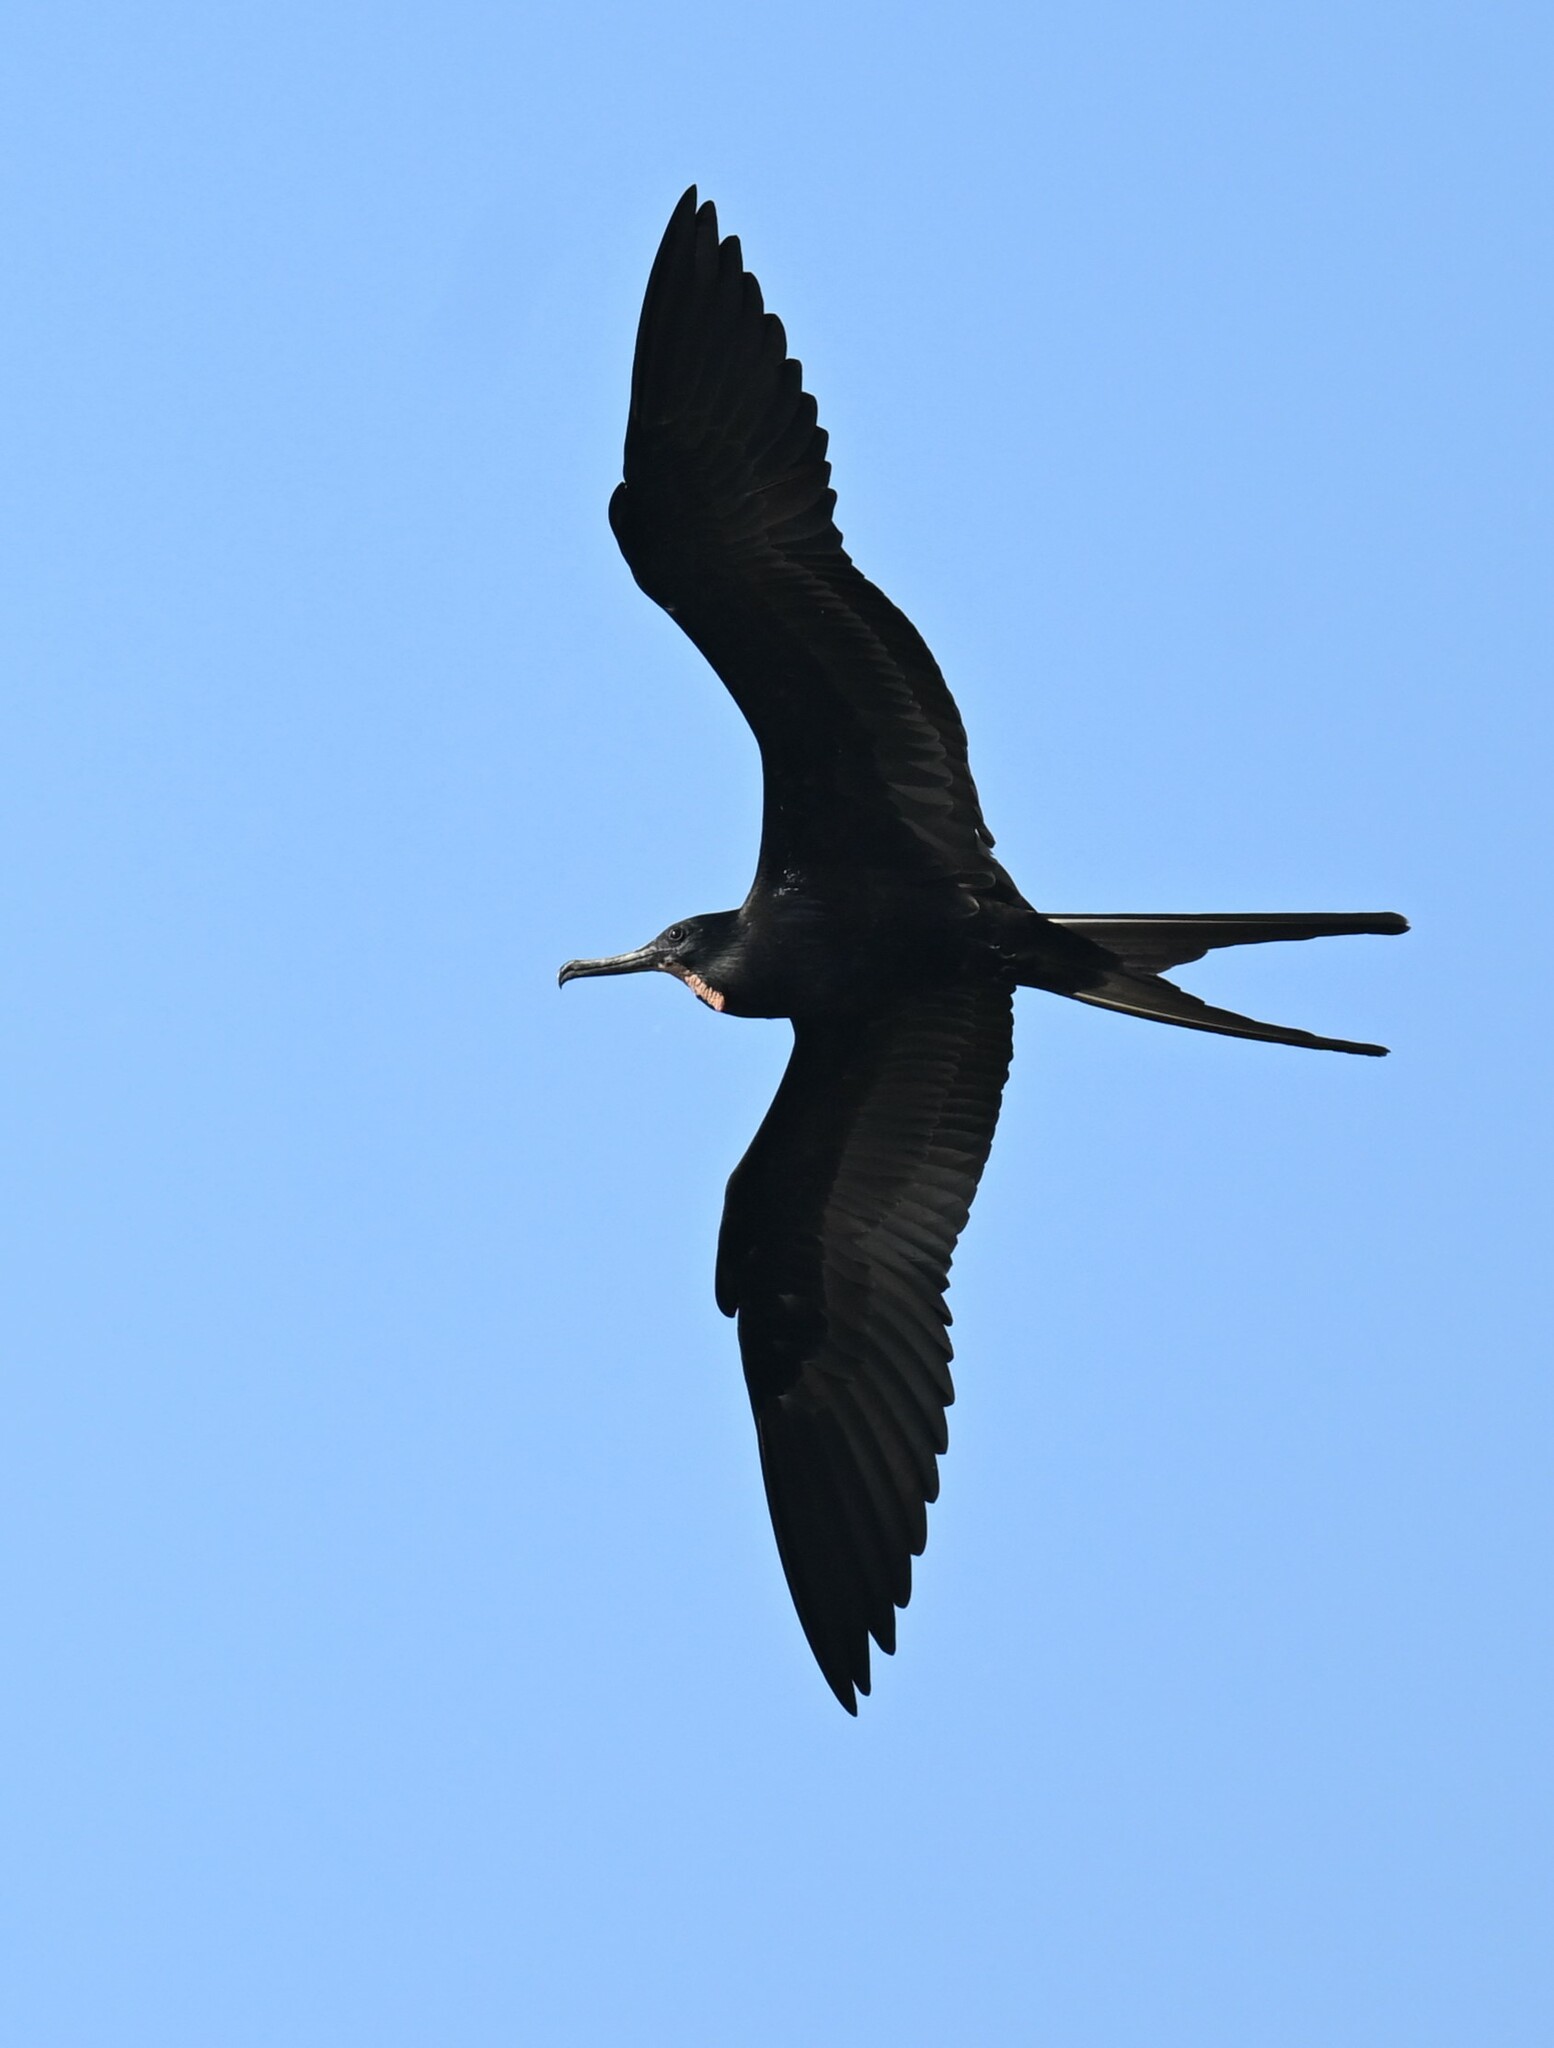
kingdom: Animalia
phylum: Chordata
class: Aves
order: Suliformes
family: Fregatidae
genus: Fregata
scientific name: Fregata magnificens
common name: Magnificent frigatebird
